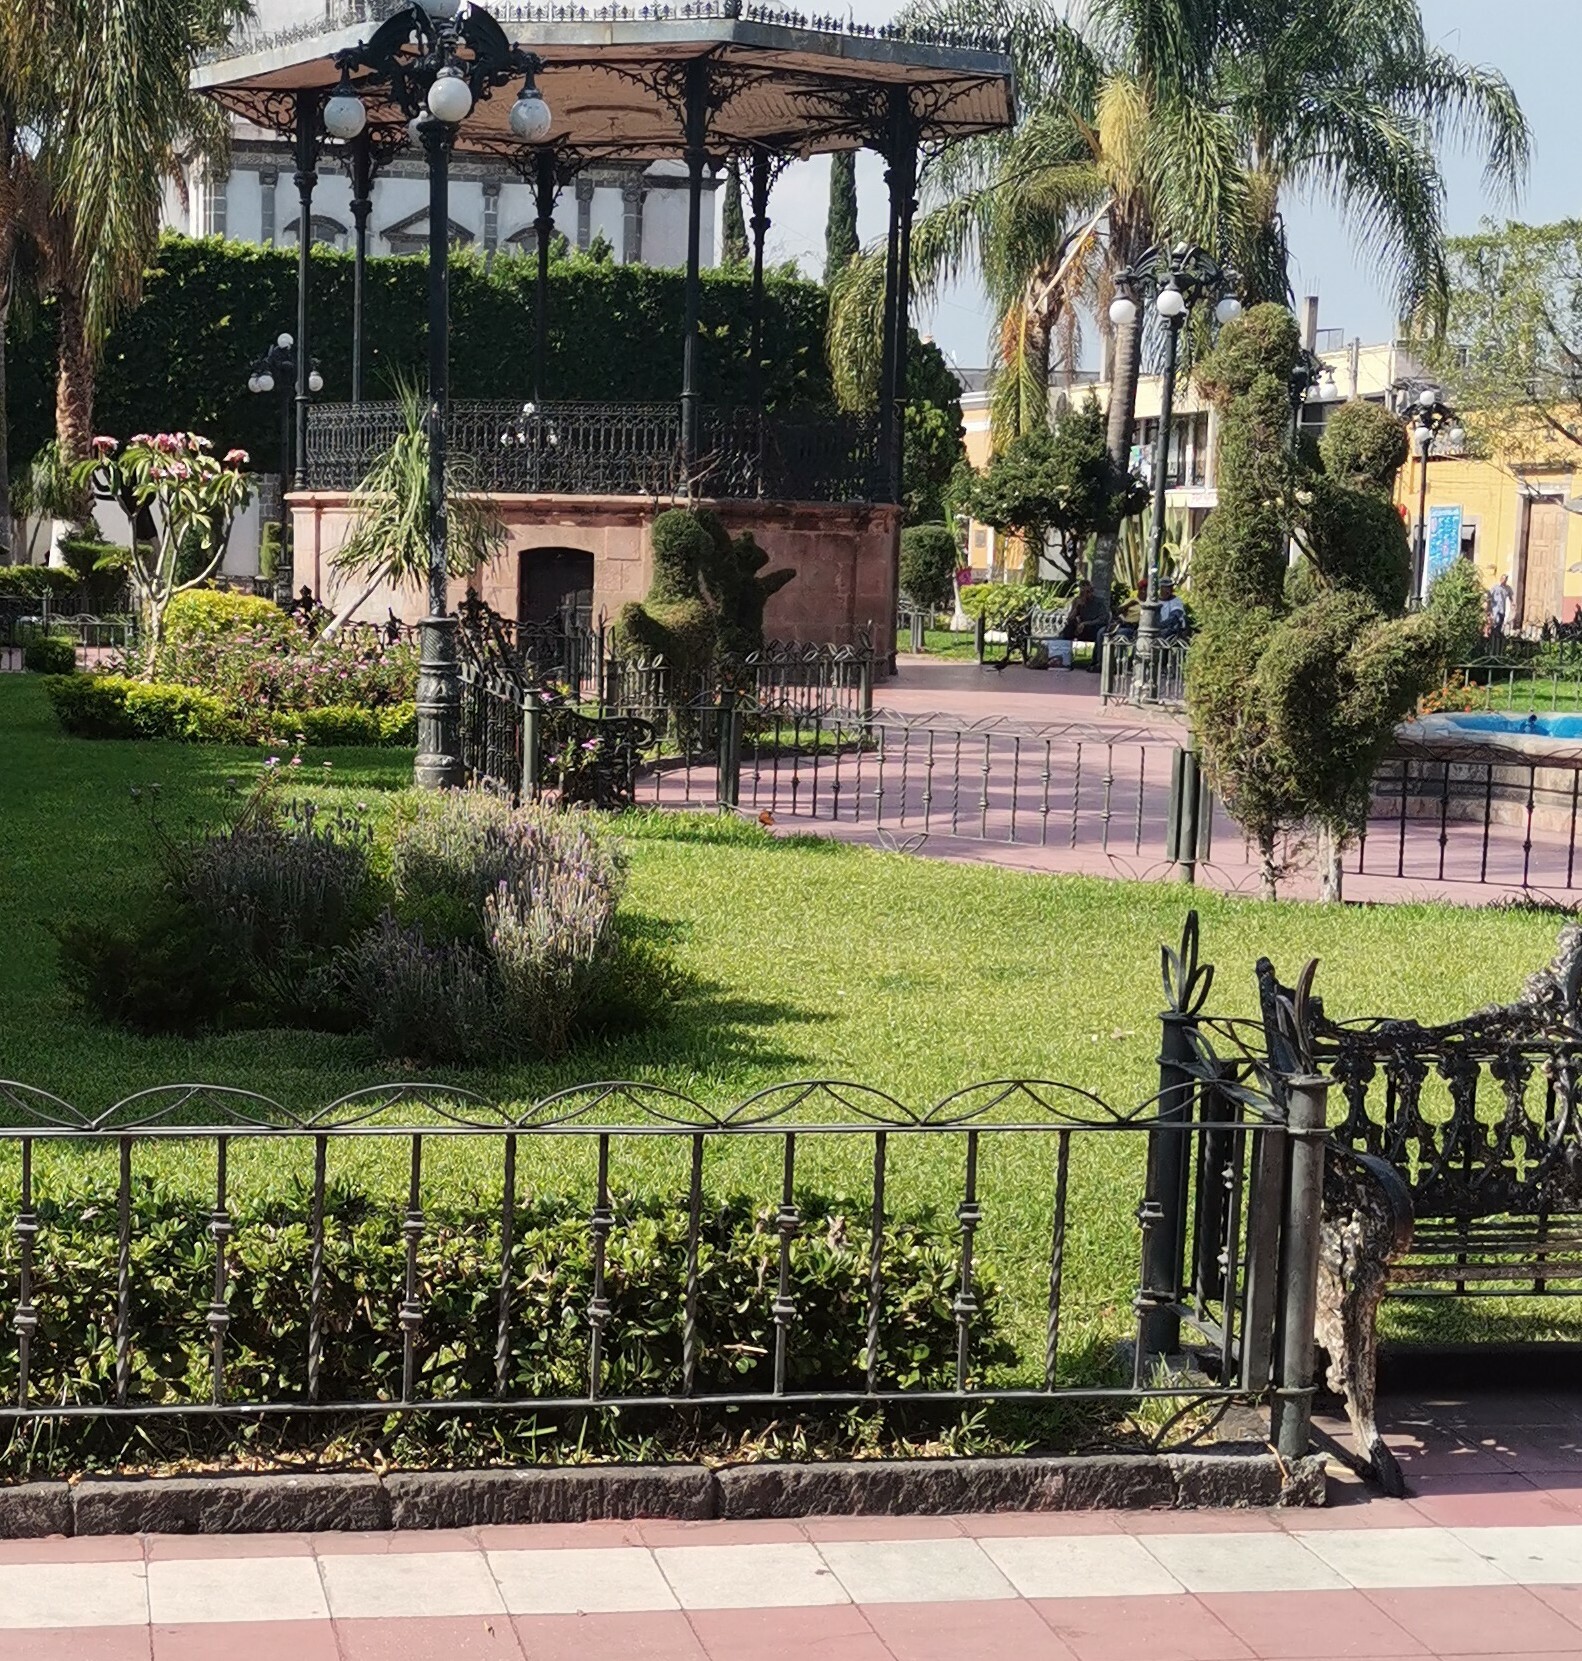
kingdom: Animalia
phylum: Arthropoda
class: Insecta
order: Lepidoptera
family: Nymphalidae
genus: Danaus
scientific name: Danaus plexippus
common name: Monarch
